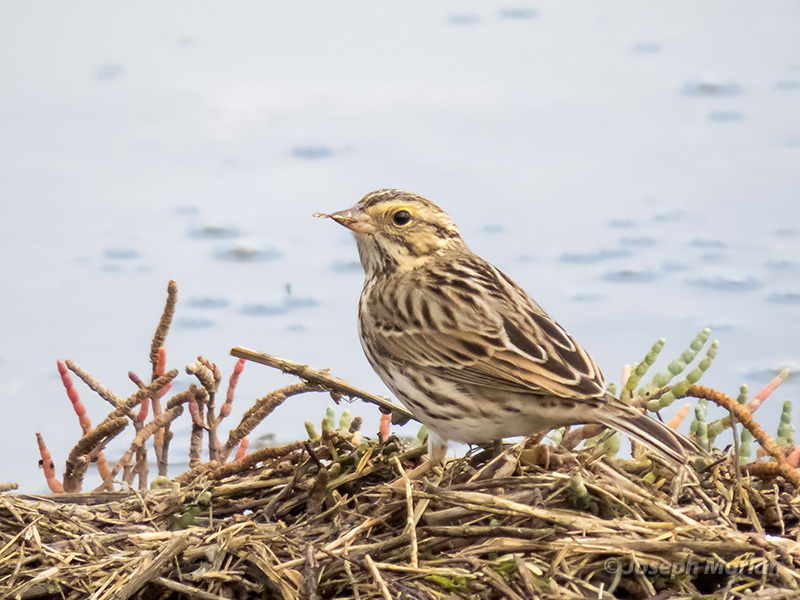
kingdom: Animalia
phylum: Chordata
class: Aves
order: Passeriformes
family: Passerellidae
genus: Passerculus
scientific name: Passerculus sandwichensis
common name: Savannah sparrow
